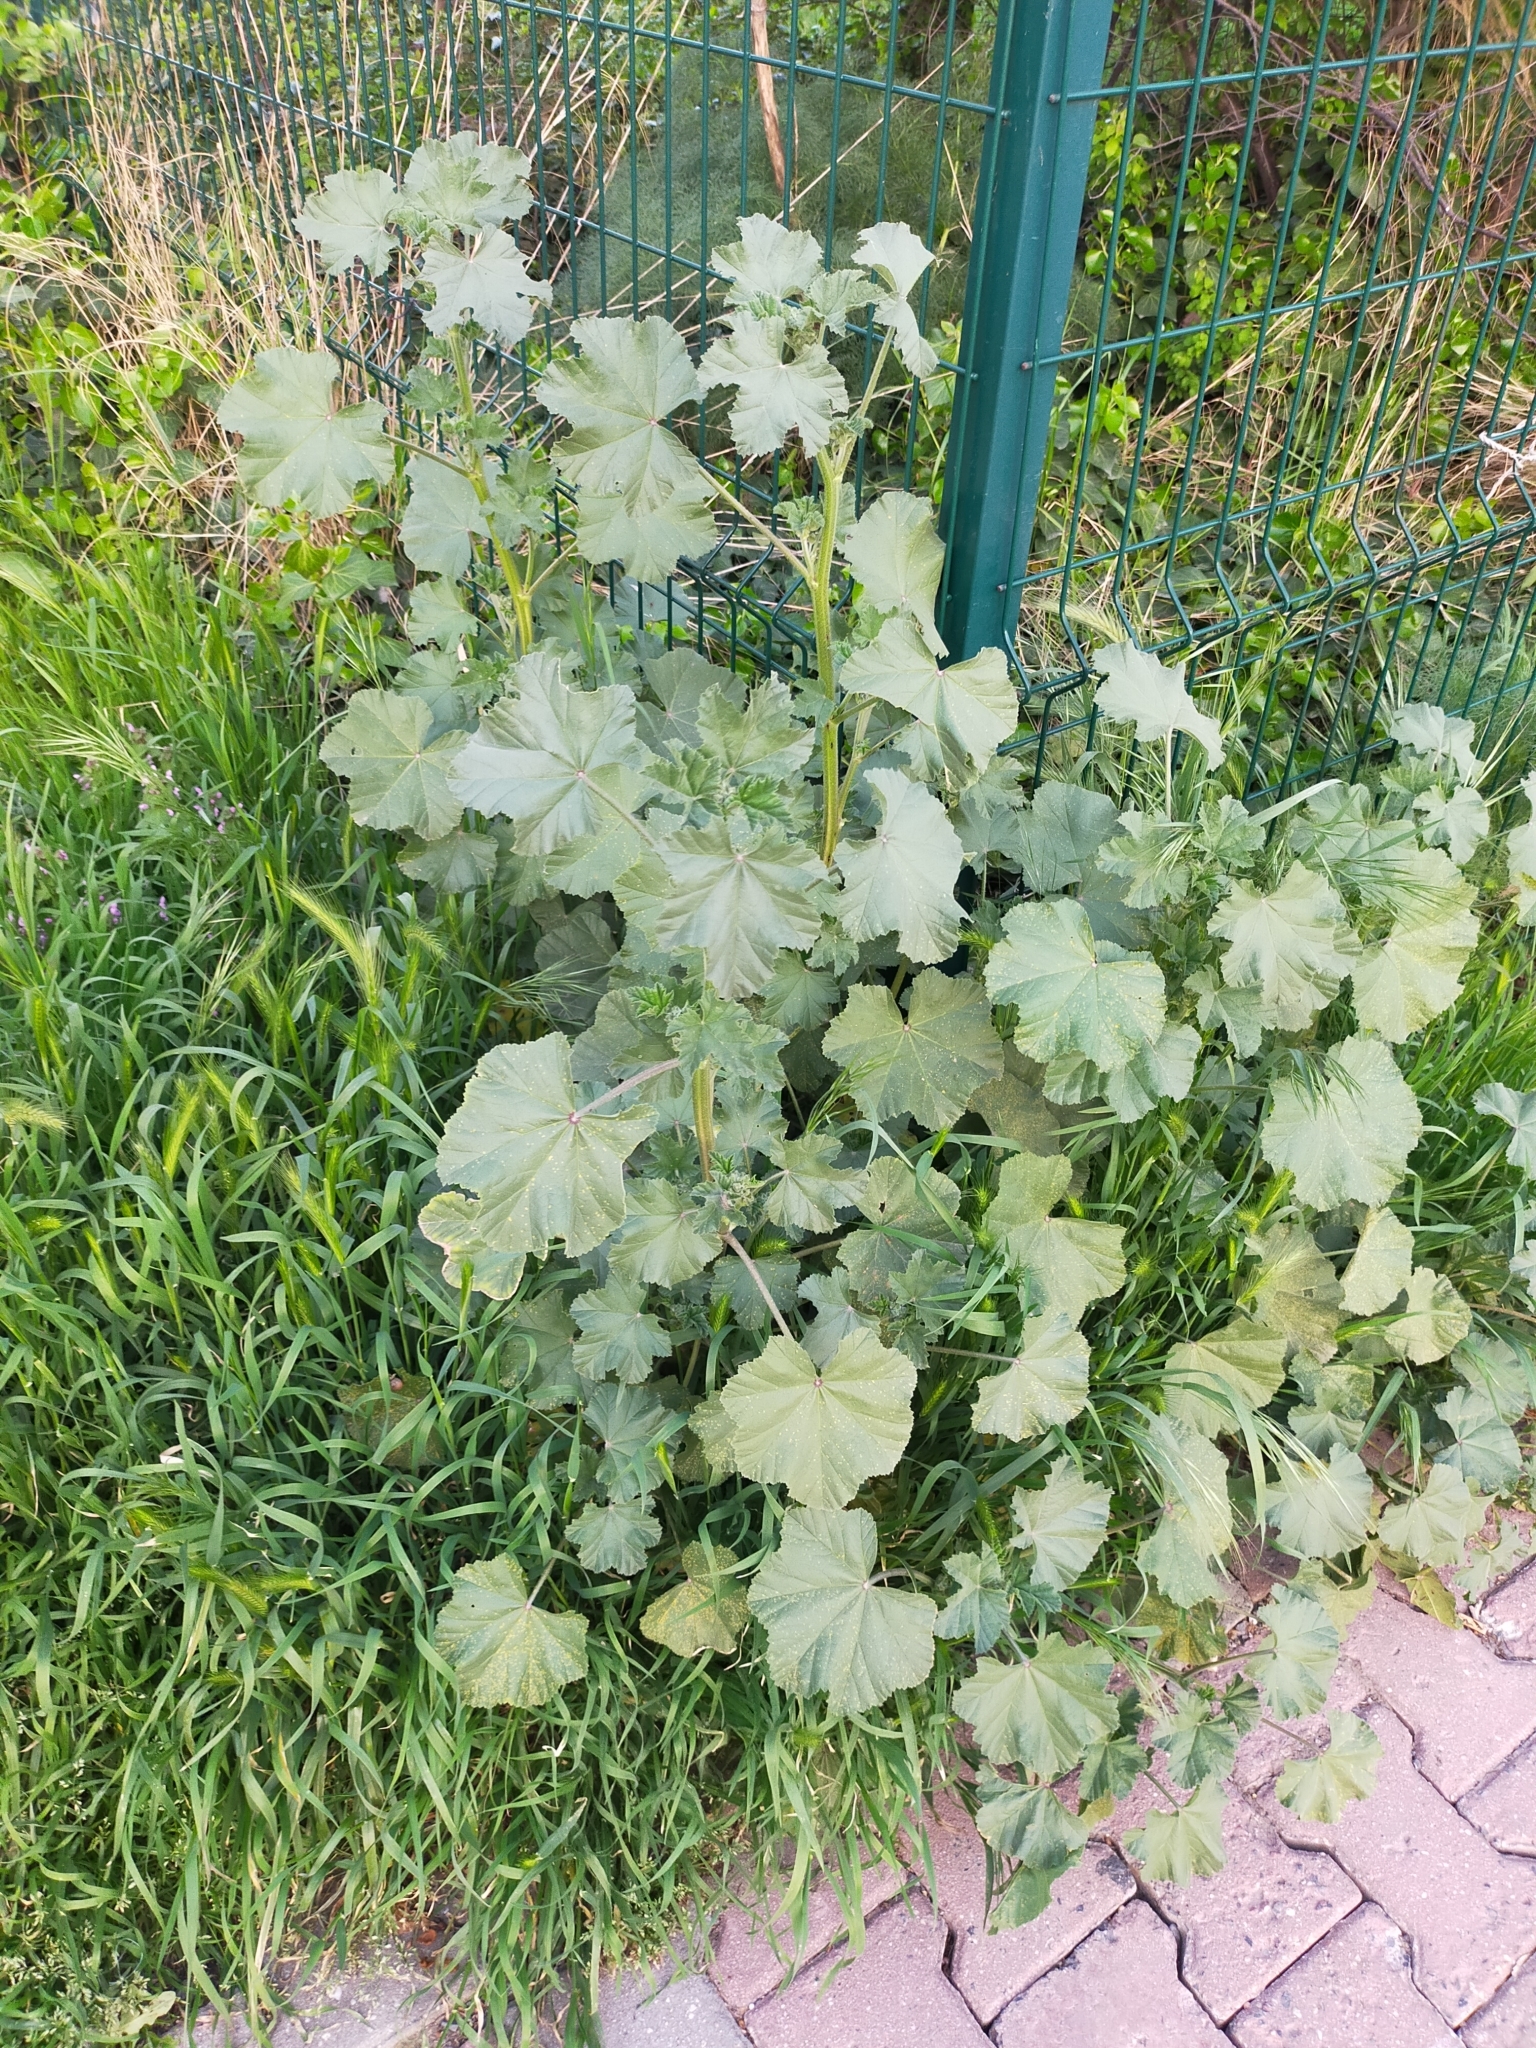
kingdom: Plantae
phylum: Tracheophyta
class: Magnoliopsida
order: Malvales
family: Malvaceae
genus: Malva
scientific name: Malva
